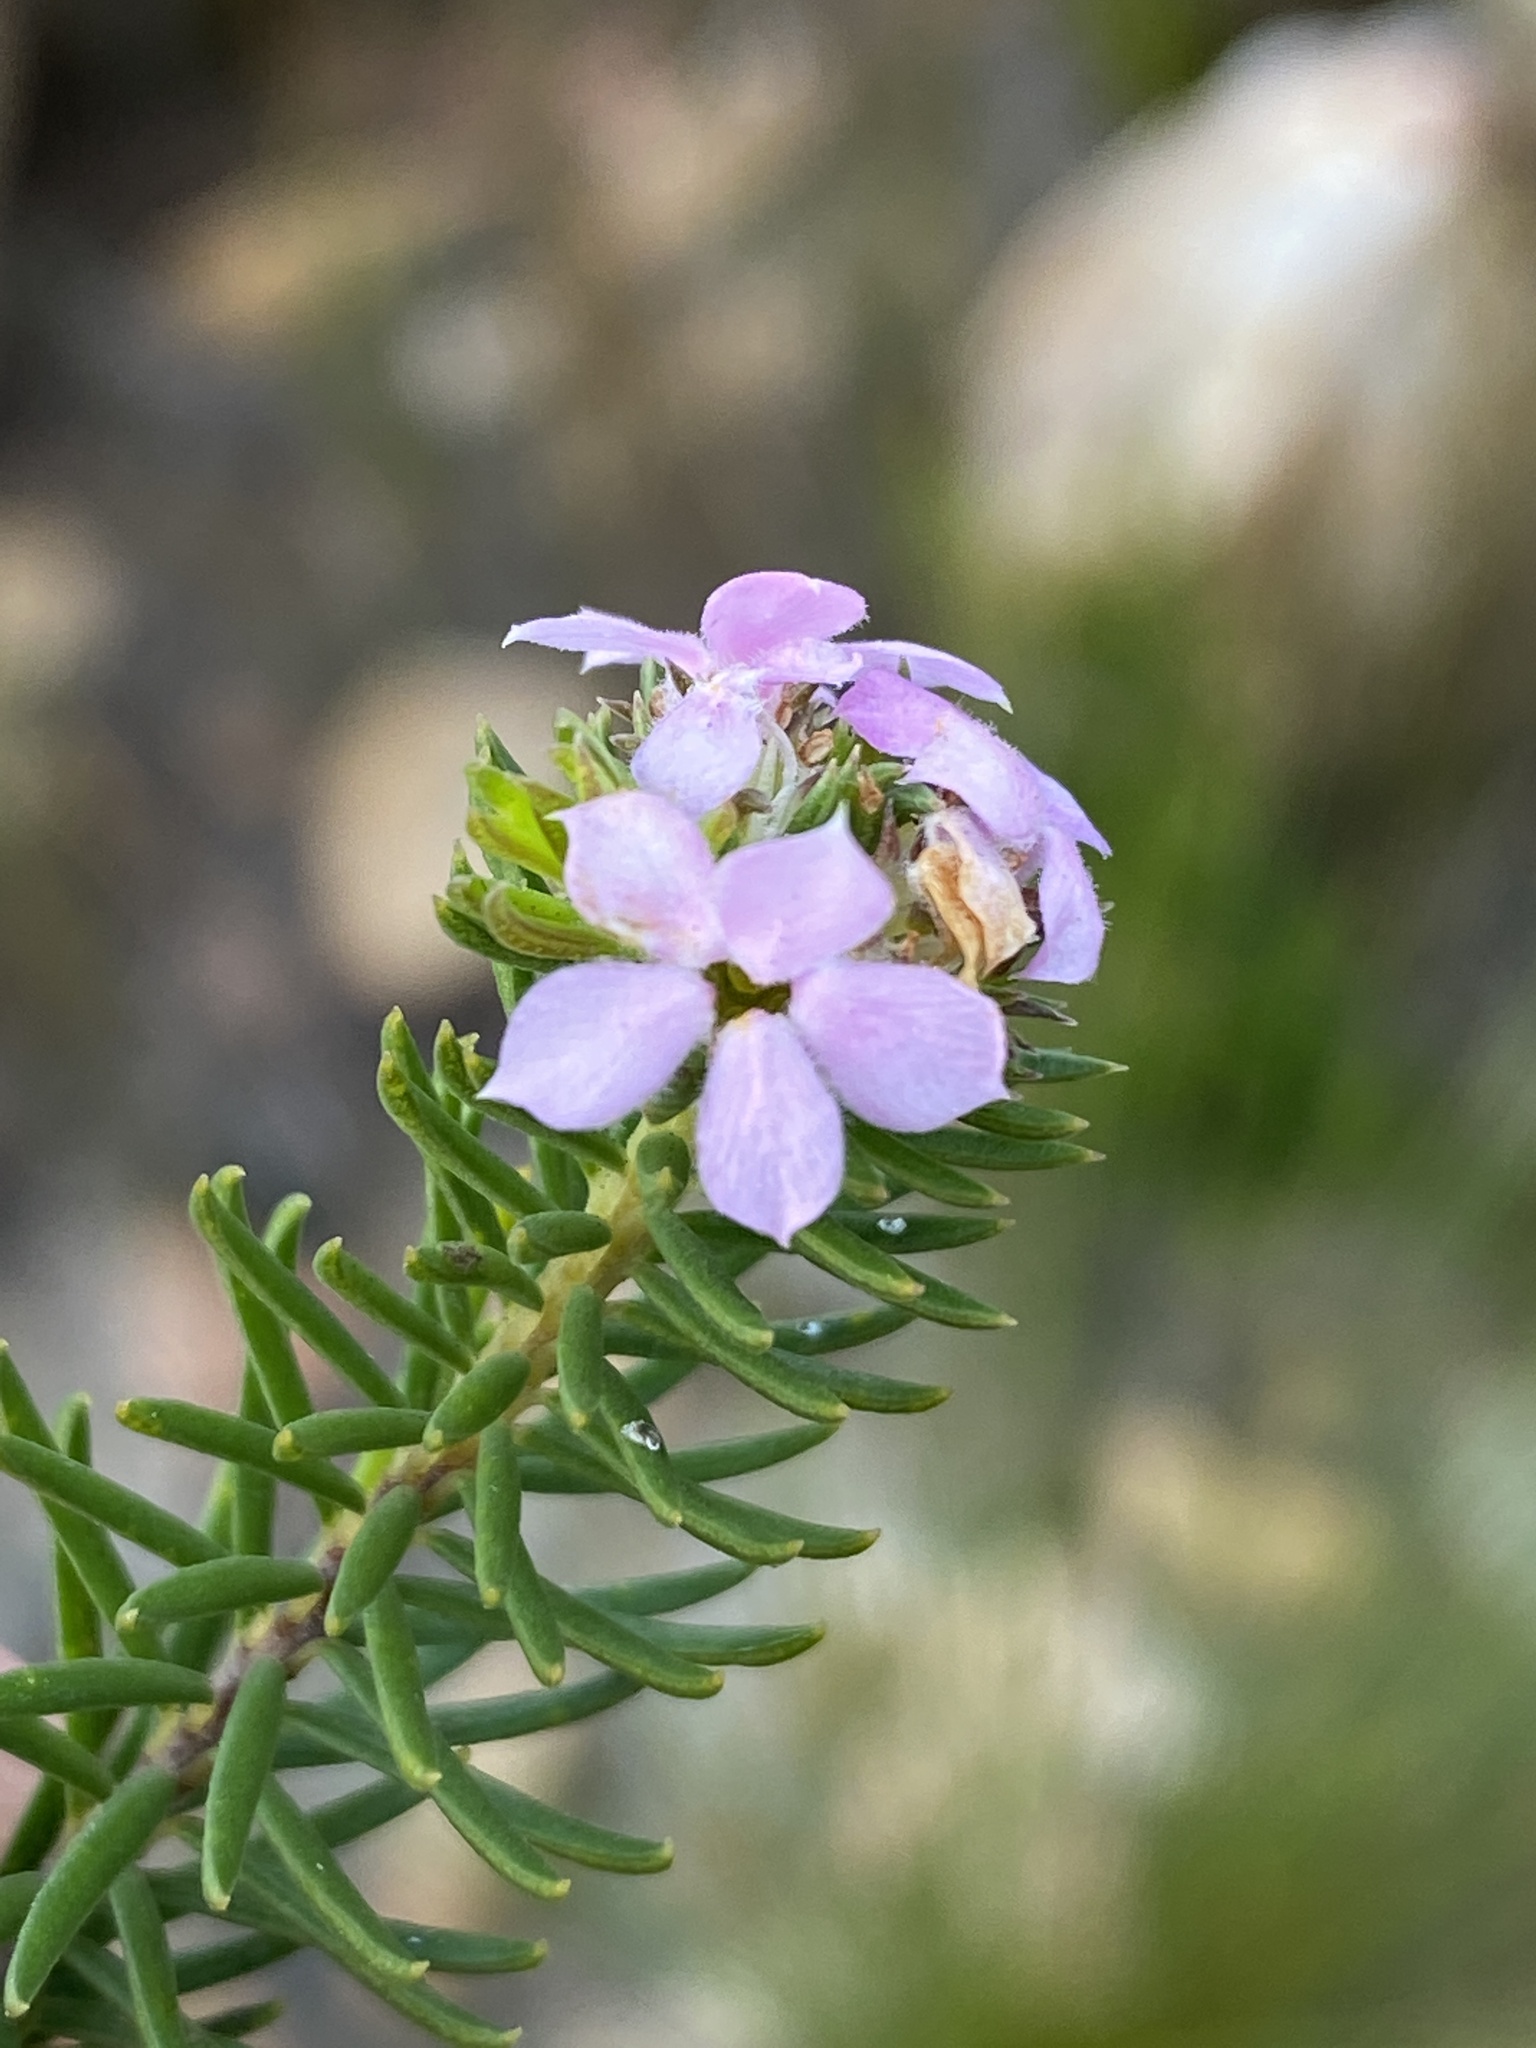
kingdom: Plantae
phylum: Tracheophyta
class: Magnoliopsida
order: Sapindales
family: Rutaceae
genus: Acmadenia
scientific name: Acmadenia alternifolia
